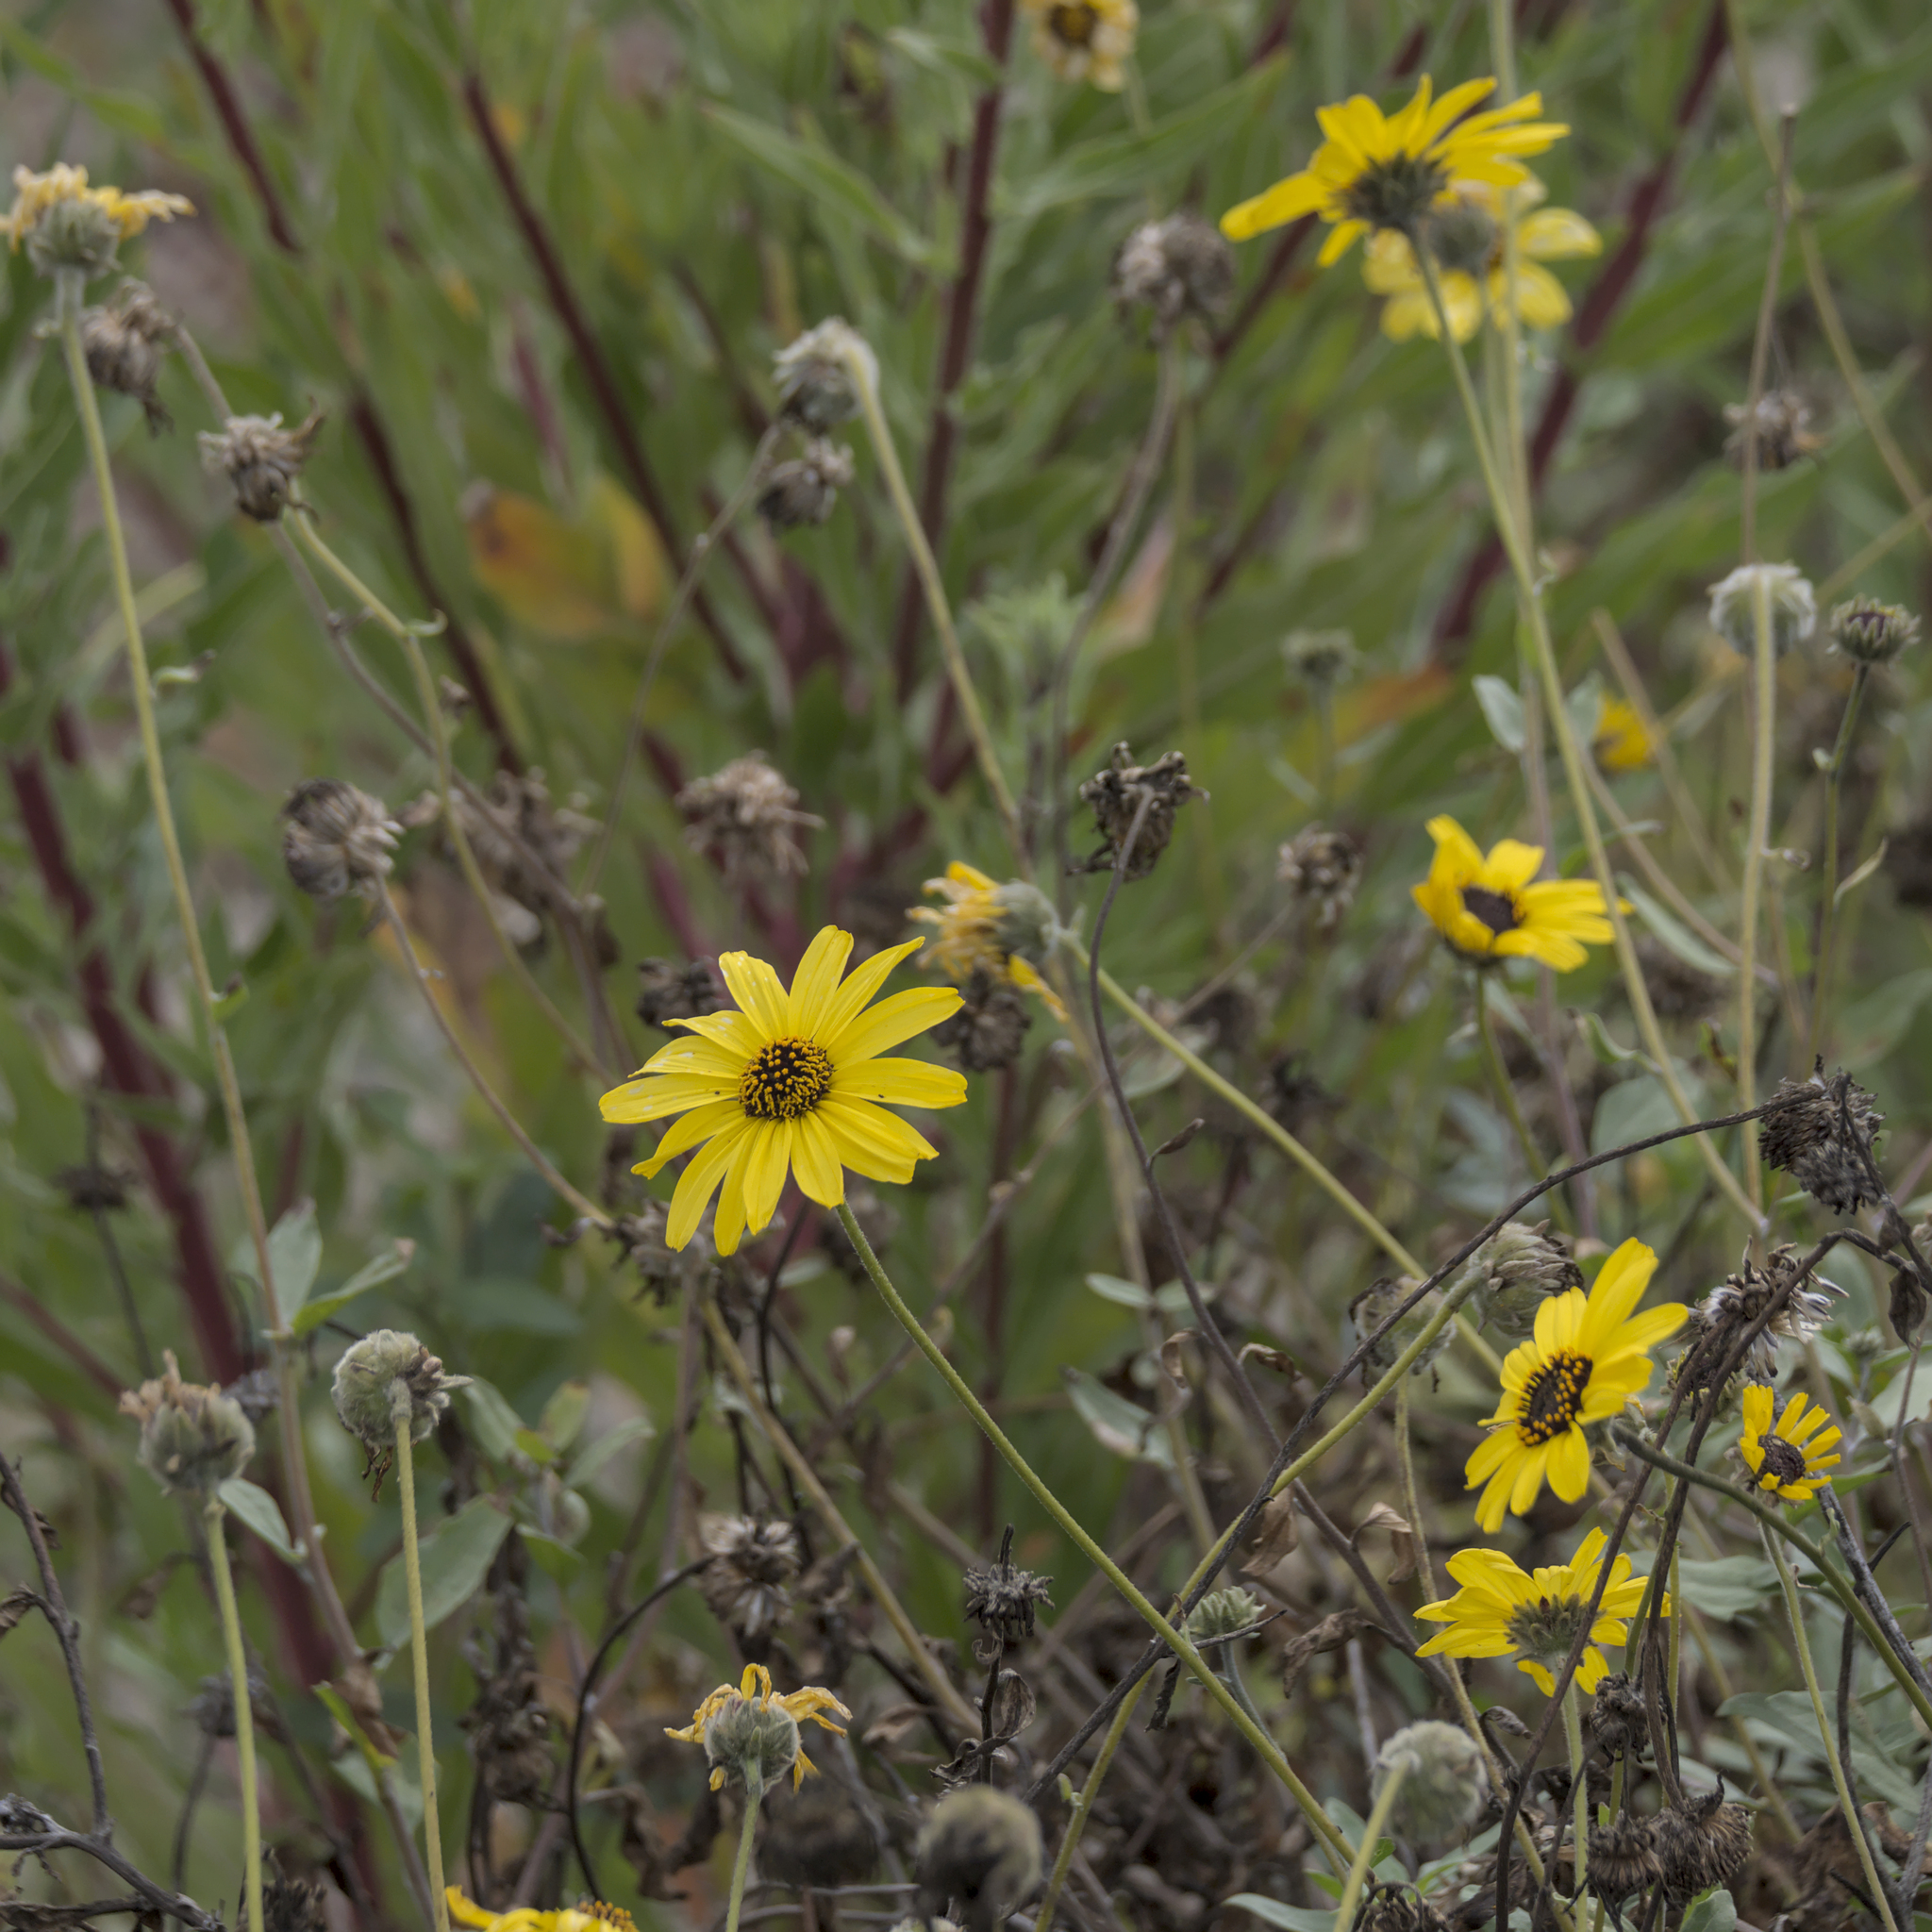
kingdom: Plantae
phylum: Tracheophyta
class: Magnoliopsida
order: Asterales
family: Asteraceae
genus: Encelia
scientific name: Encelia californica
